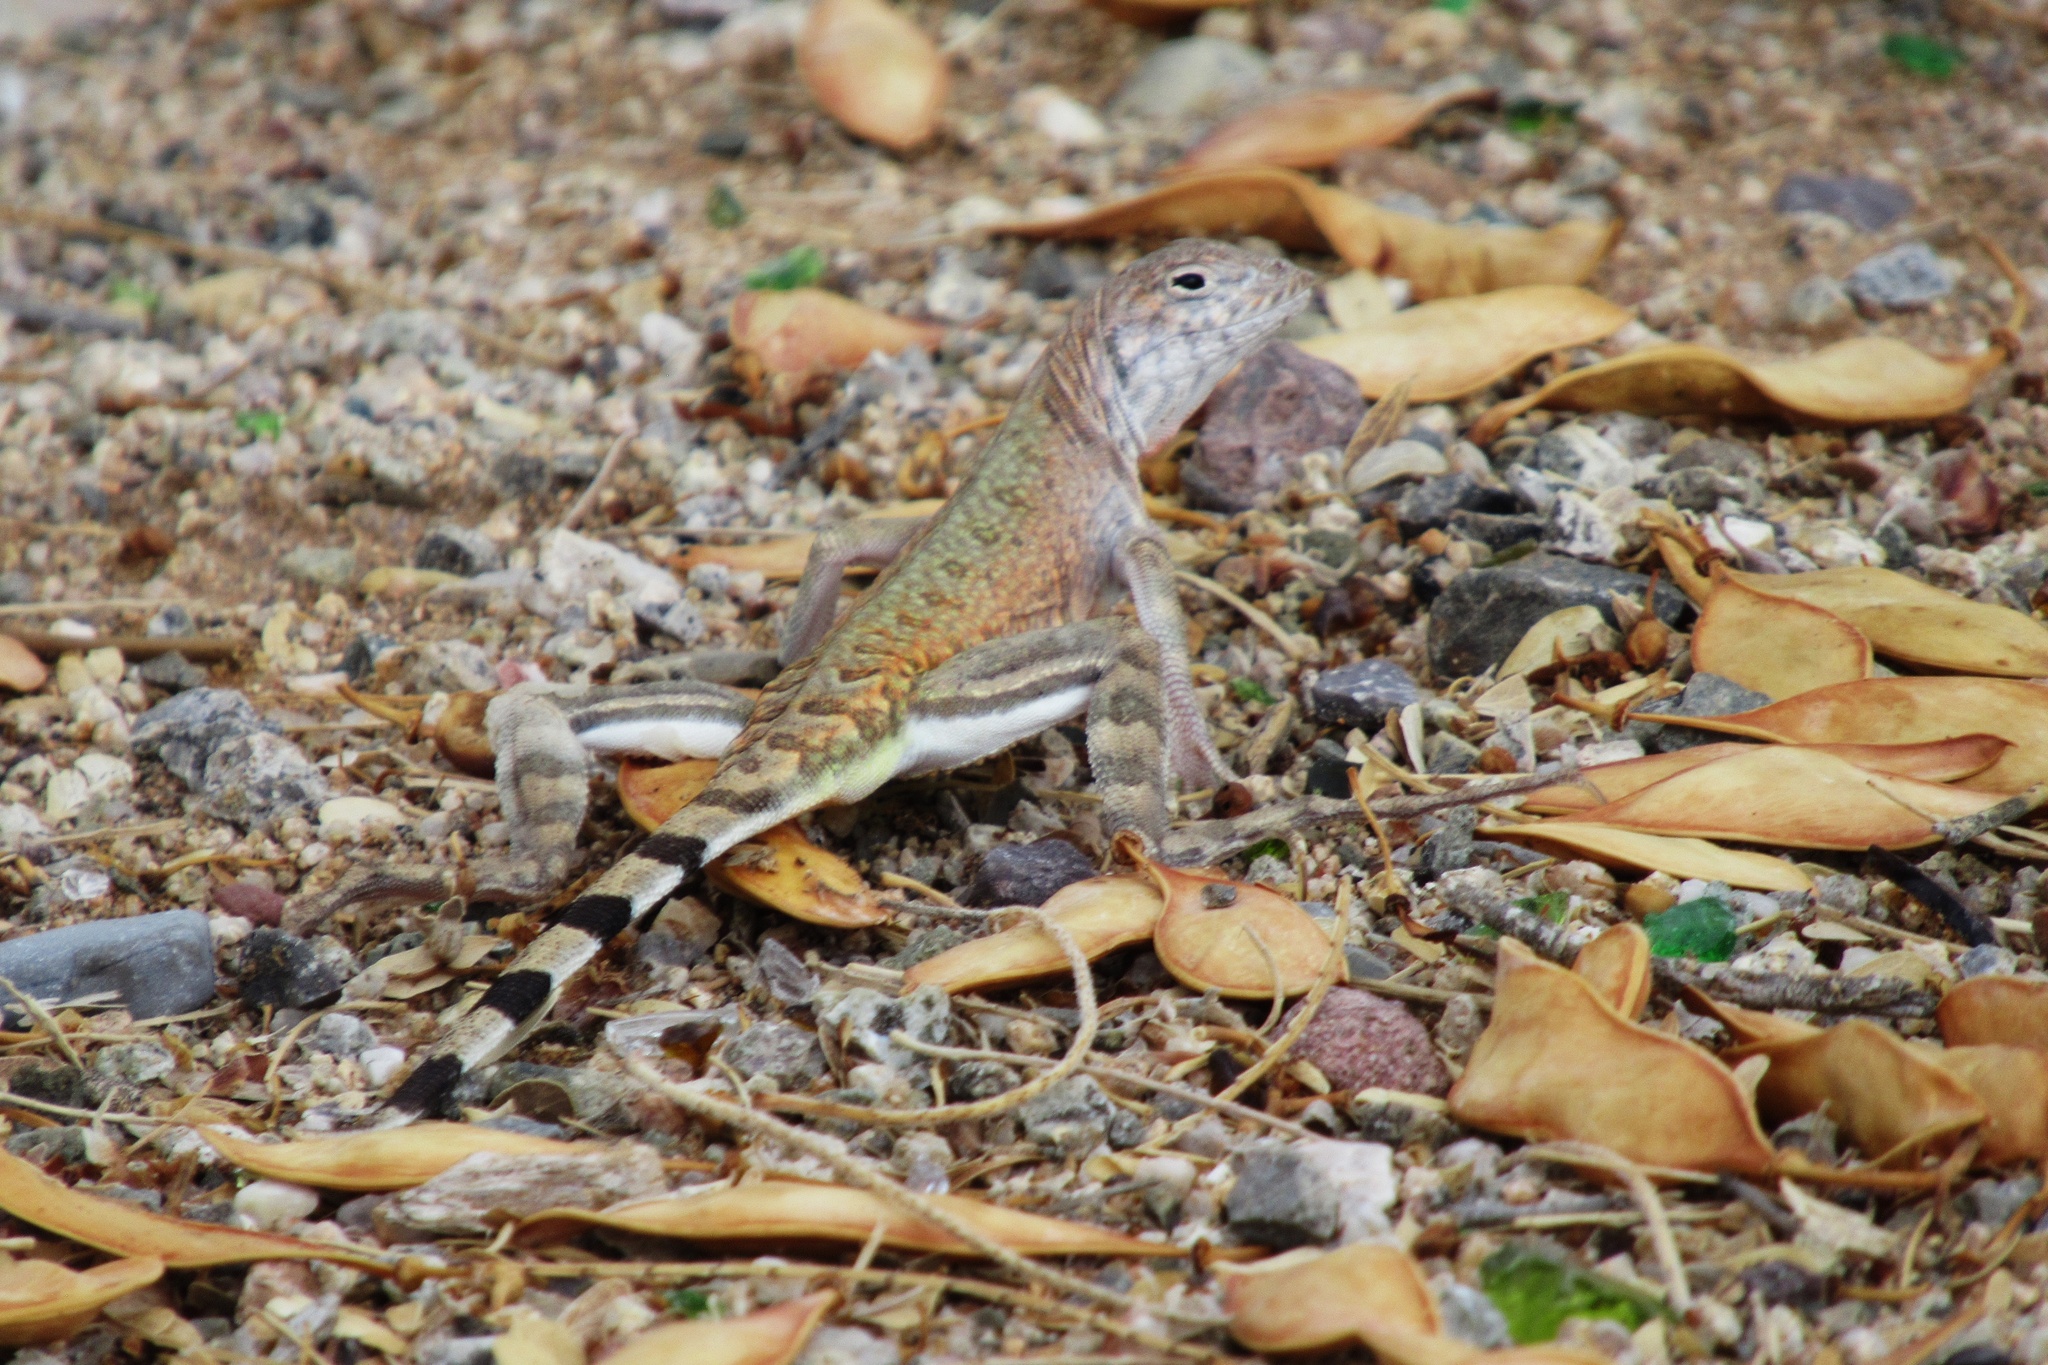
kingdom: Animalia
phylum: Chordata
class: Squamata
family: Phrynosomatidae
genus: Callisaurus
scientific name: Callisaurus draconoides
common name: Zebra-tailed lizard
